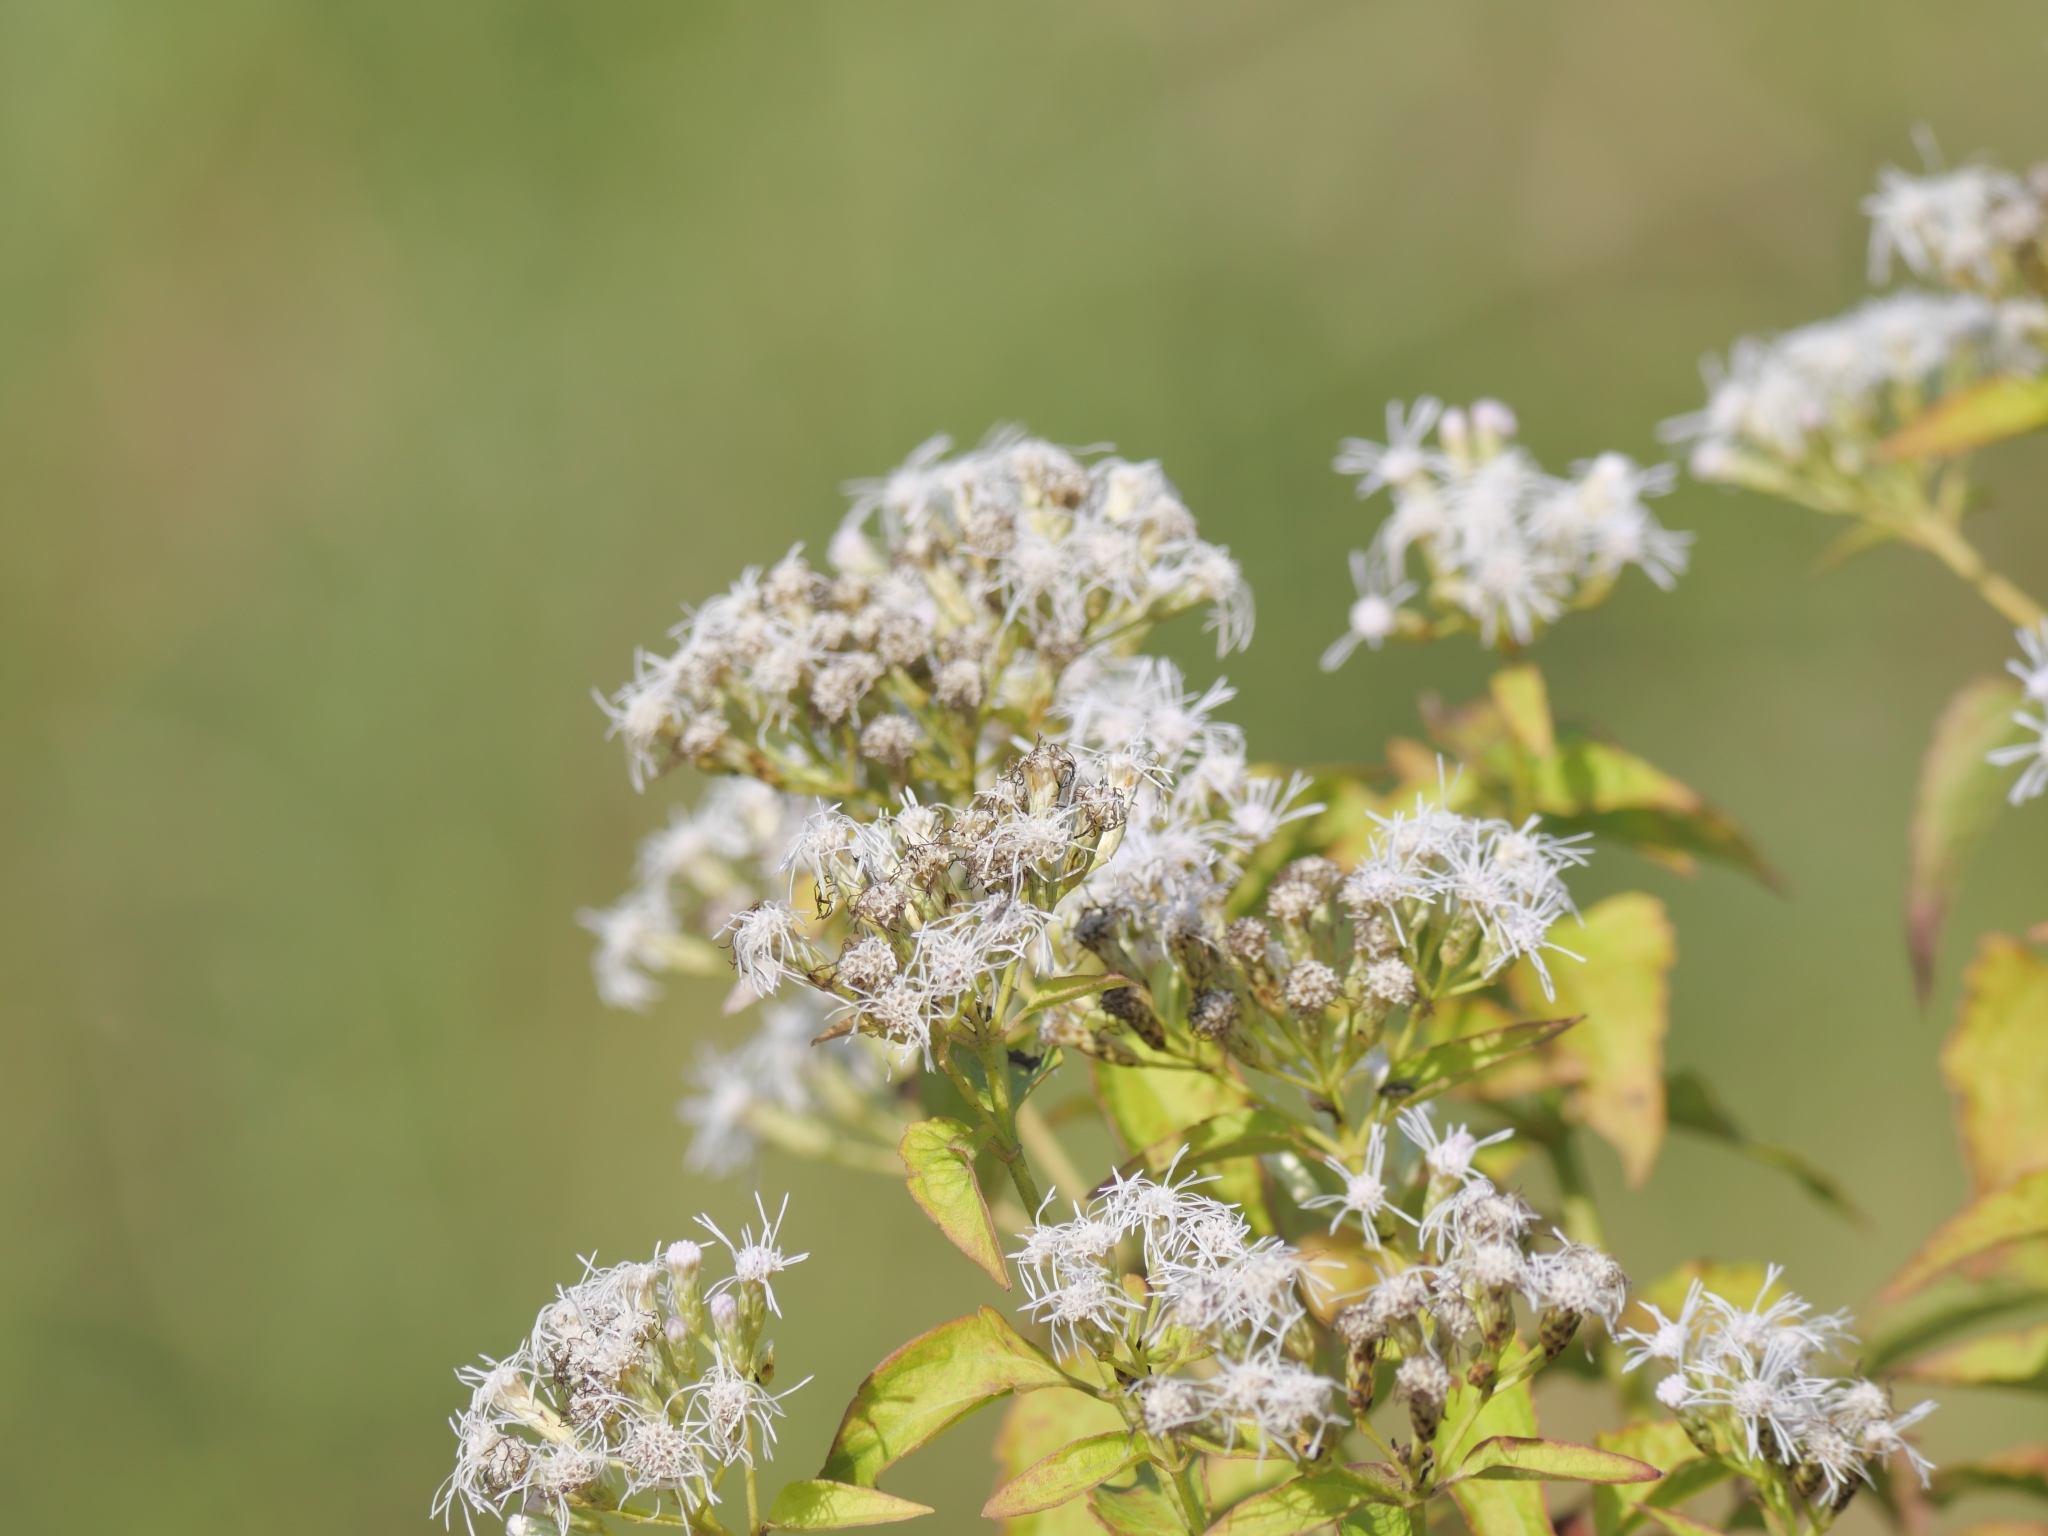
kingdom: Plantae
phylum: Tracheophyta
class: Magnoliopsida
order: Asterales
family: Asteraceae
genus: Chromolaena
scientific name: Chromolaena odorata
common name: Siamweed
